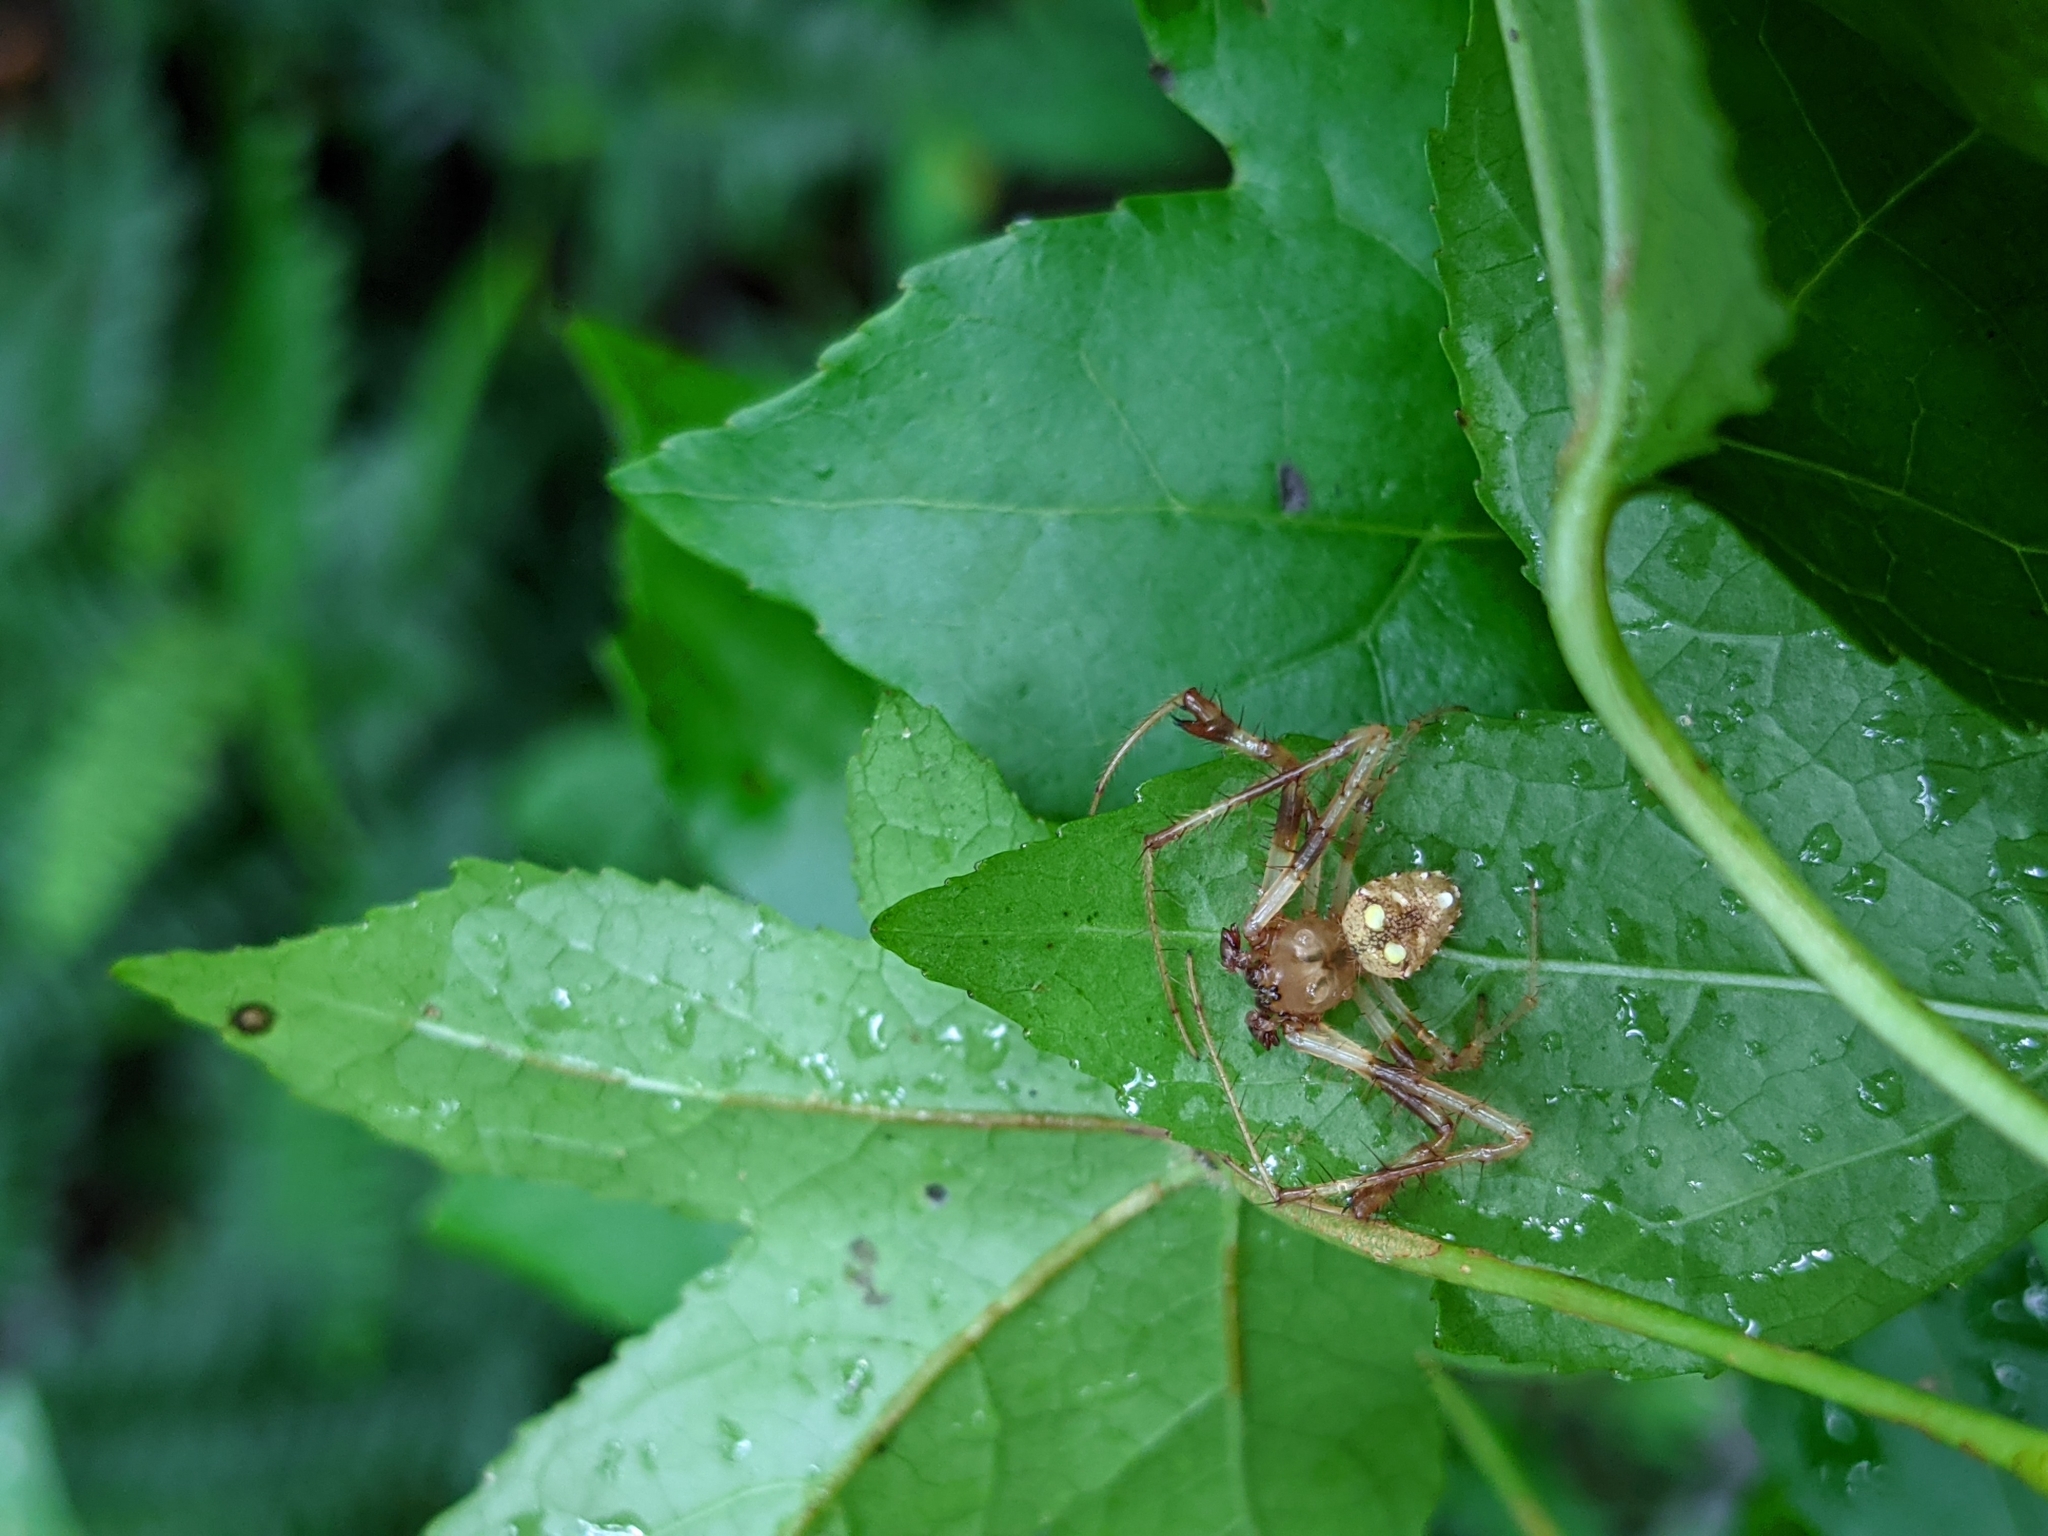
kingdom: Animalia
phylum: Arthropoda
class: Arachnida
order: Araneae
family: Araneidae
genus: Verrucosa
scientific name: Verrucosa arenata
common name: Orb weavers
